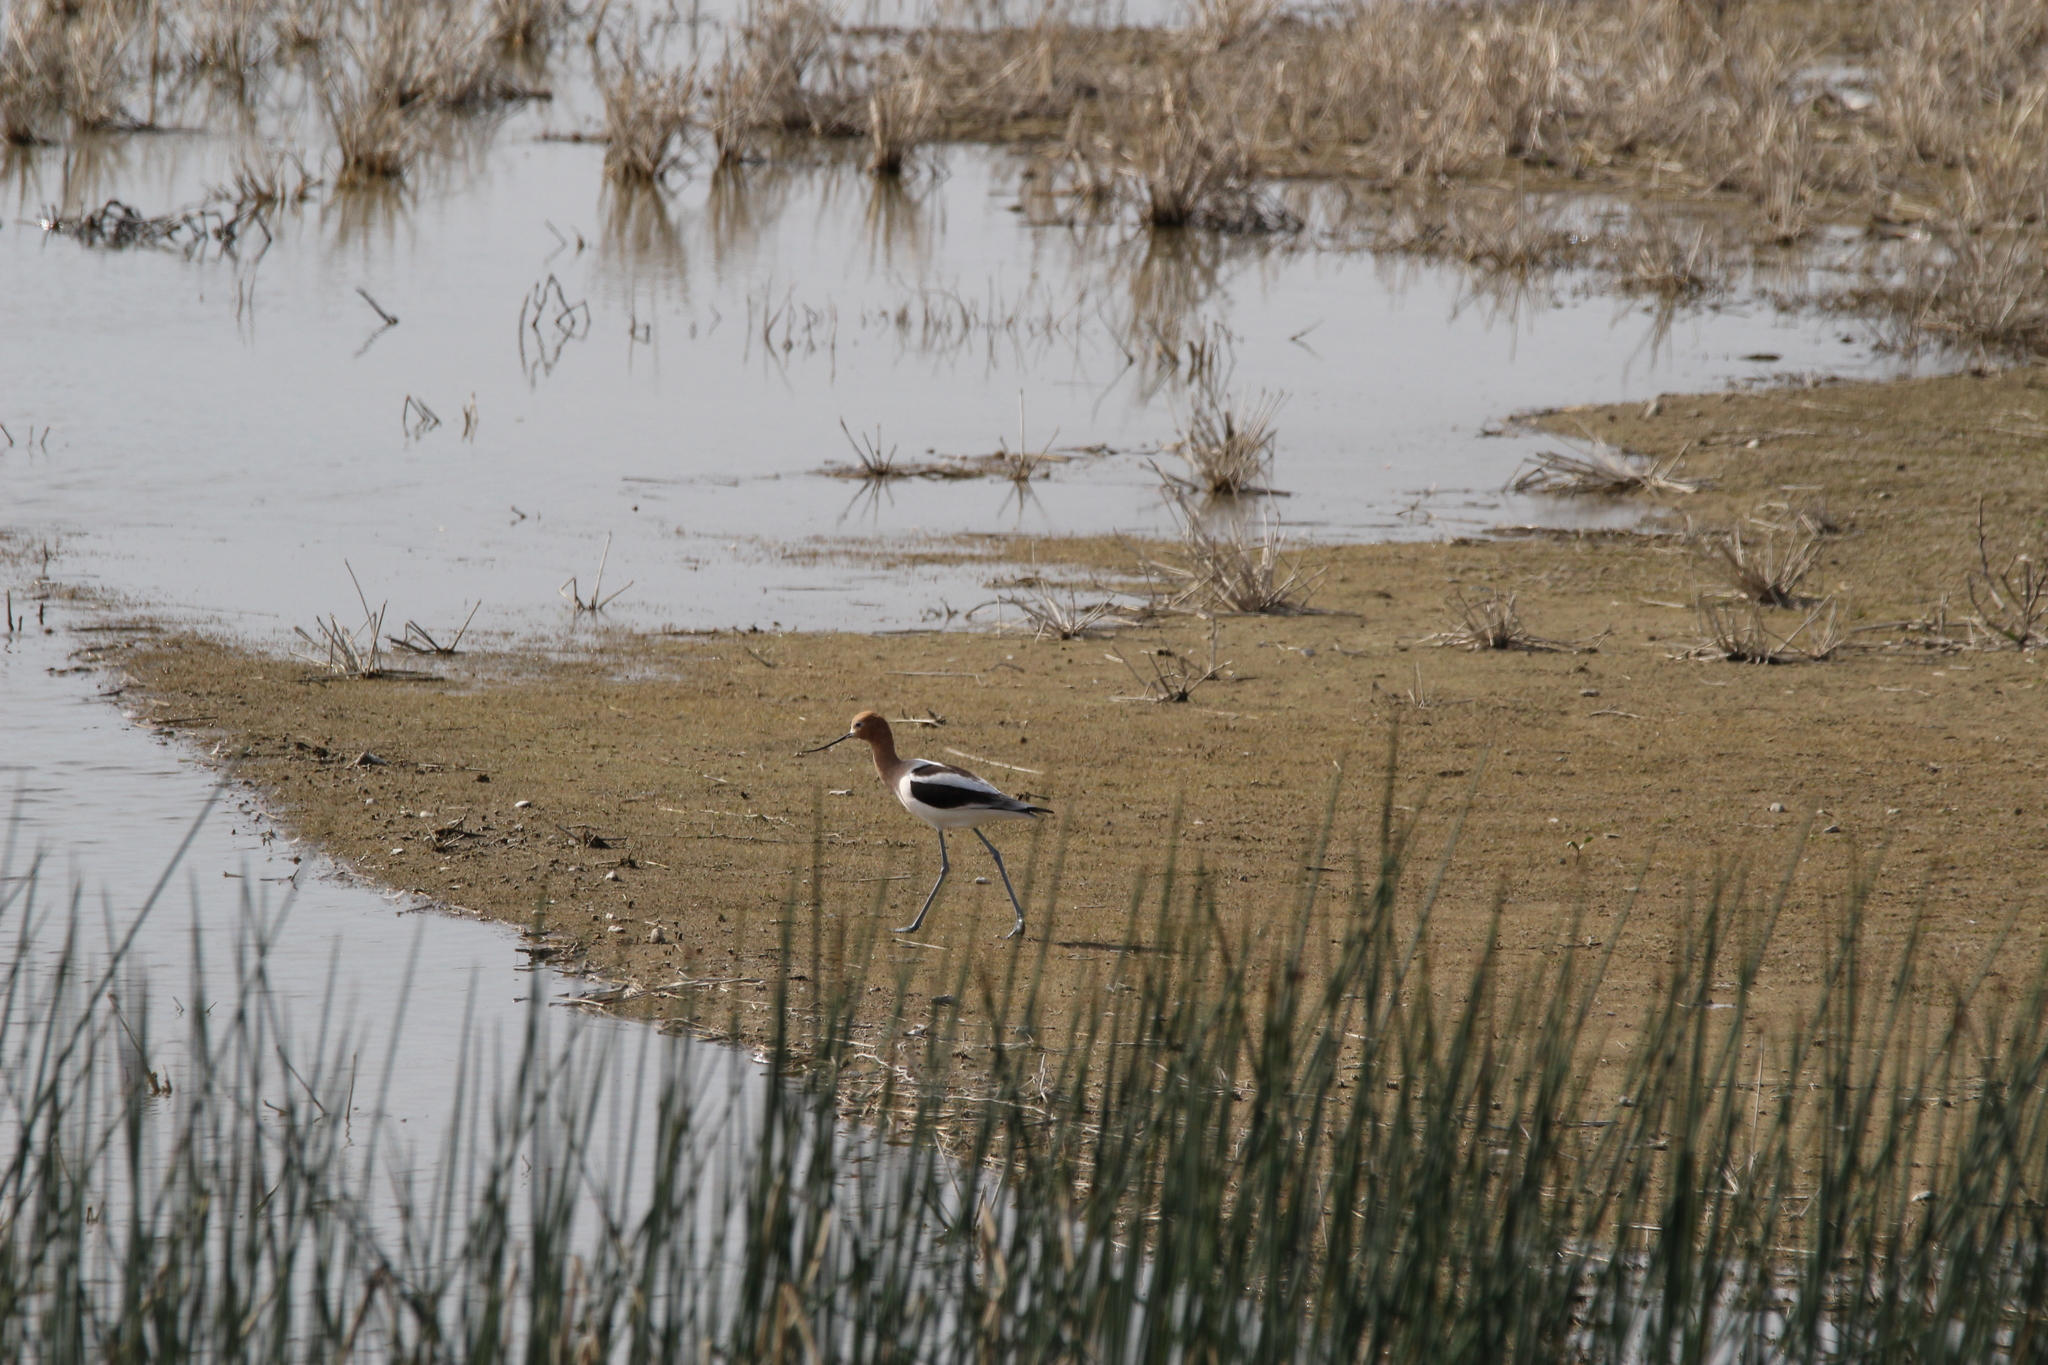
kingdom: Animalia
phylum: Chordata
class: Aves
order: Charadriiformes
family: Recurvirostridae
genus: Recurvirostra
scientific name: Recurvirostra americana
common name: American avocet
